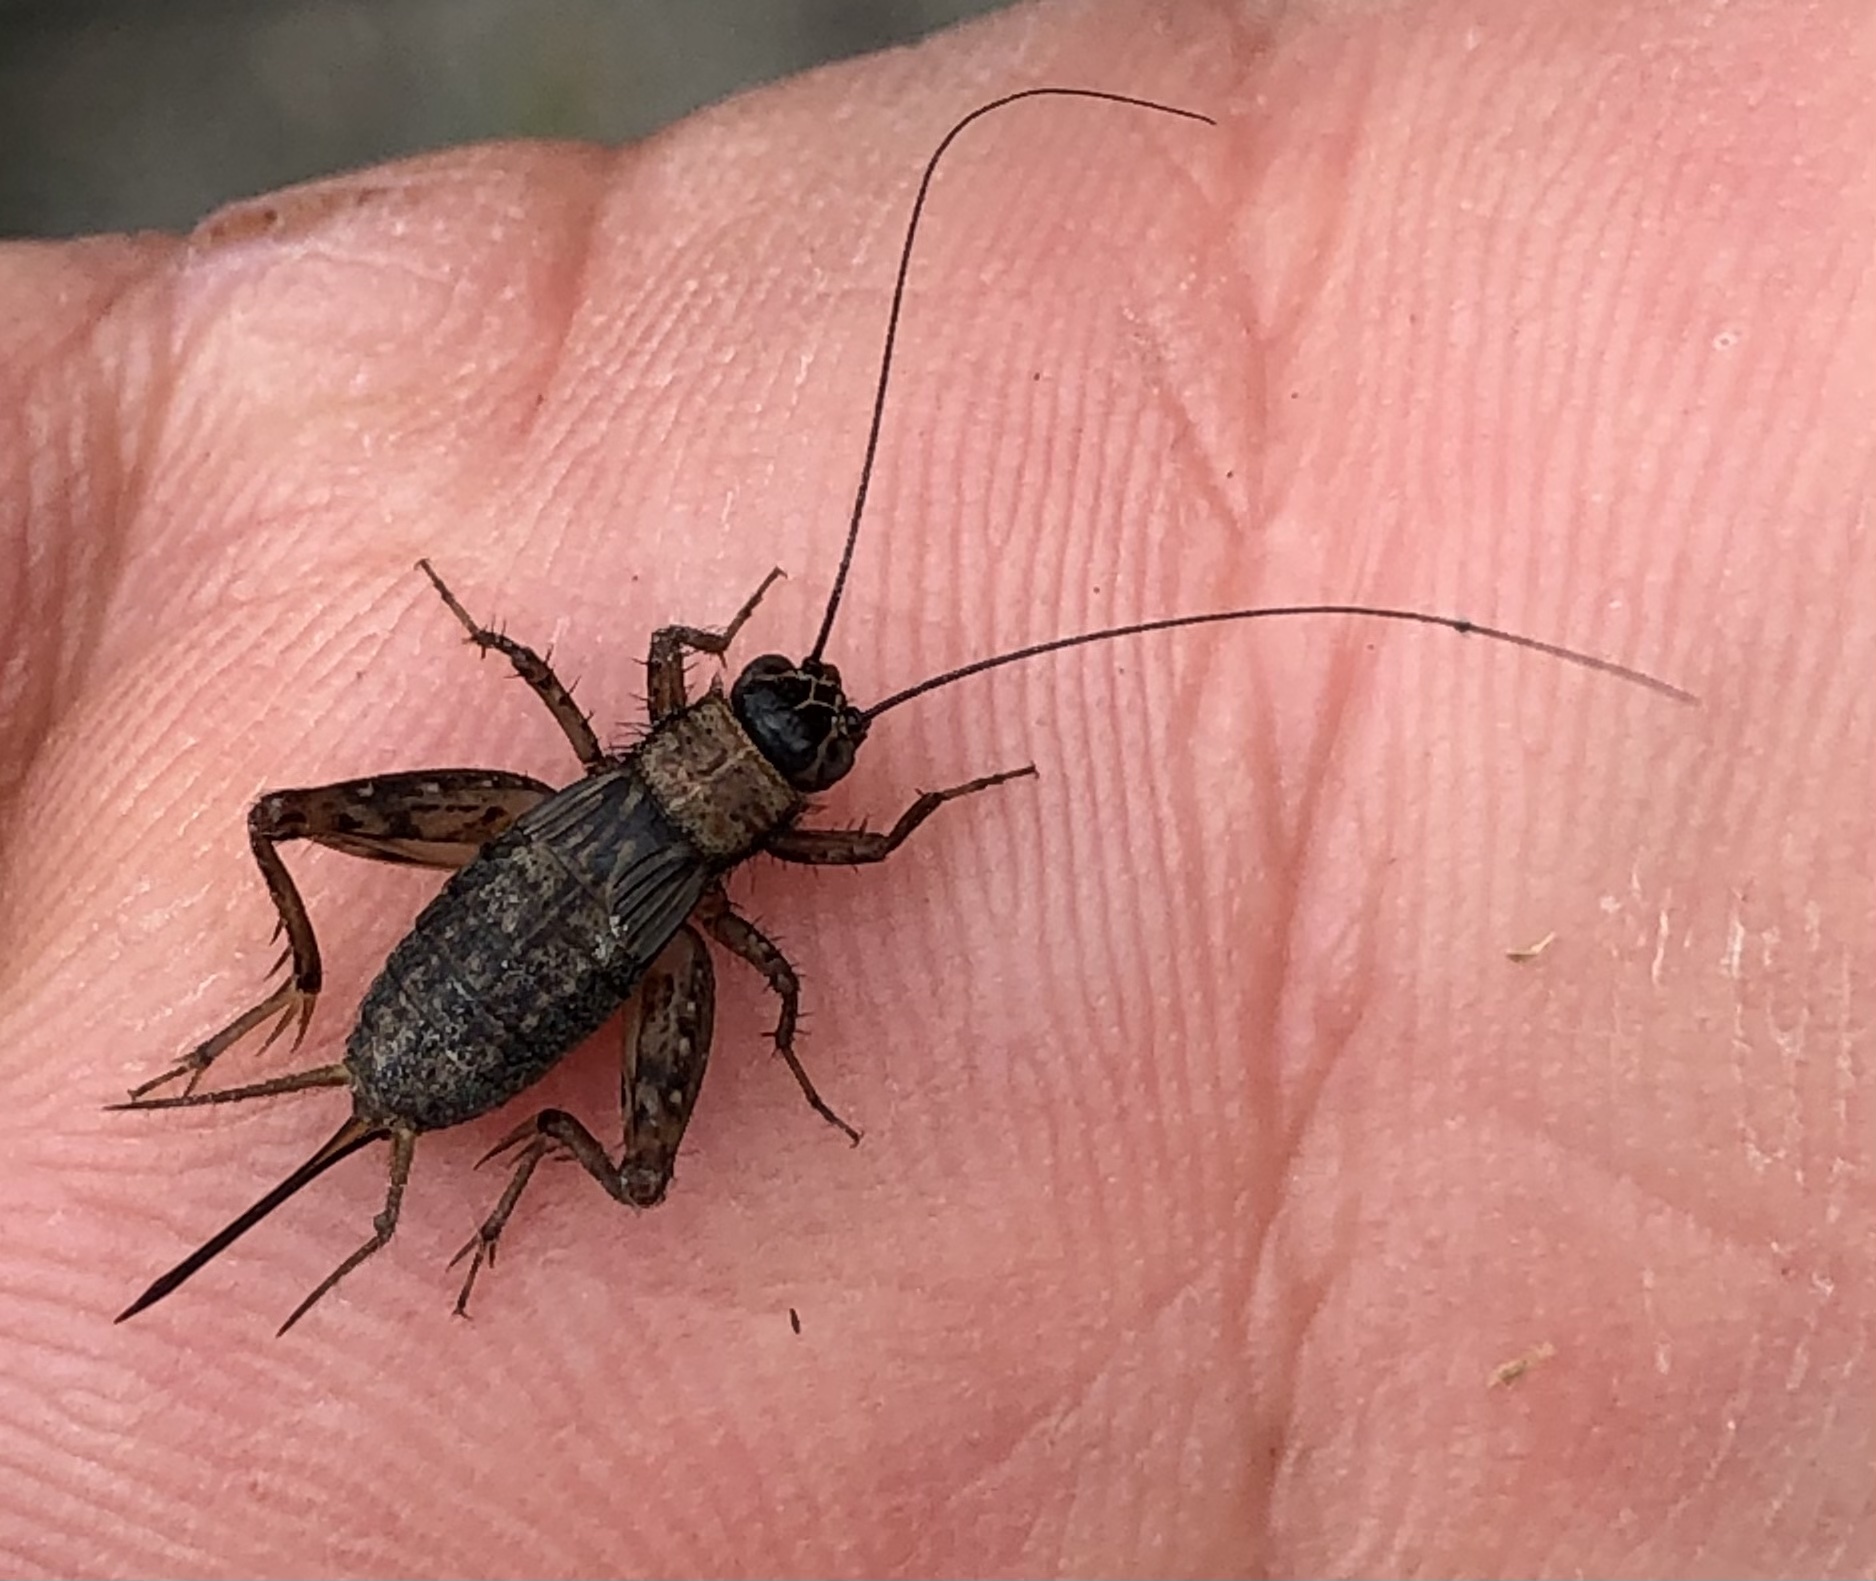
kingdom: Animalia
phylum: Arthropoda
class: Insecta
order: Orthoptera
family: Trigonidiidae
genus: Nemobius
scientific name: Nemobius sylvestris
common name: Wood-cricket
